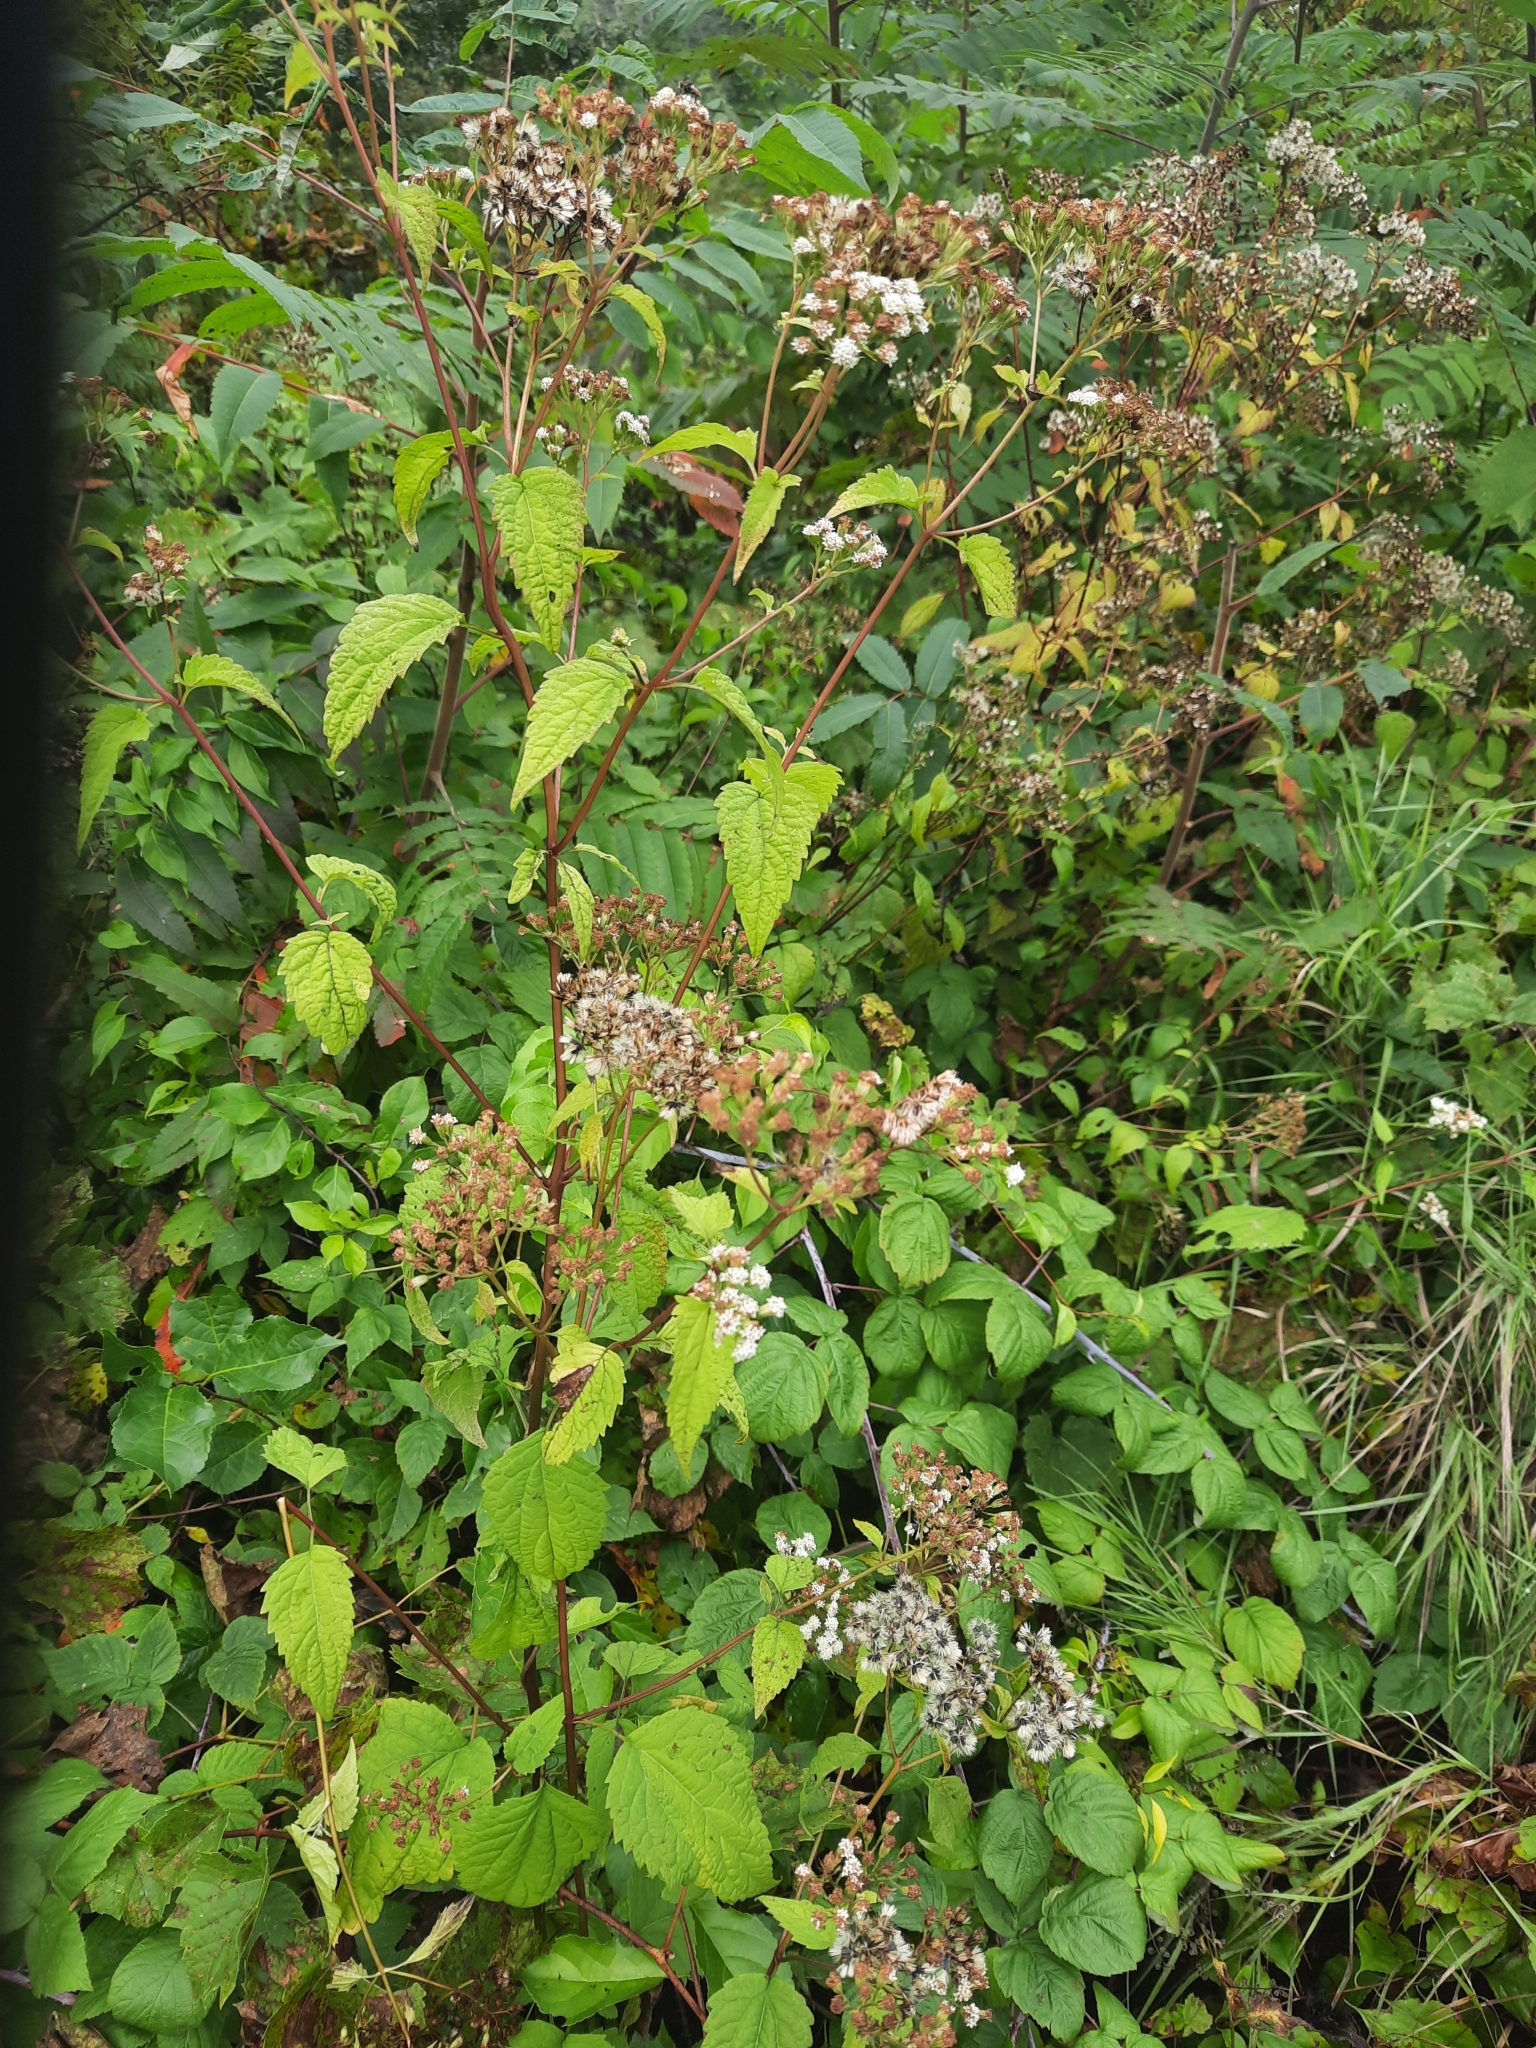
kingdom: Plantae
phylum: Tracheophyta
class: Magnoliopsida
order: Asterales
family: Asteraceae
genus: Ageratina
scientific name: Ageratina altissima
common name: White snakeroot
